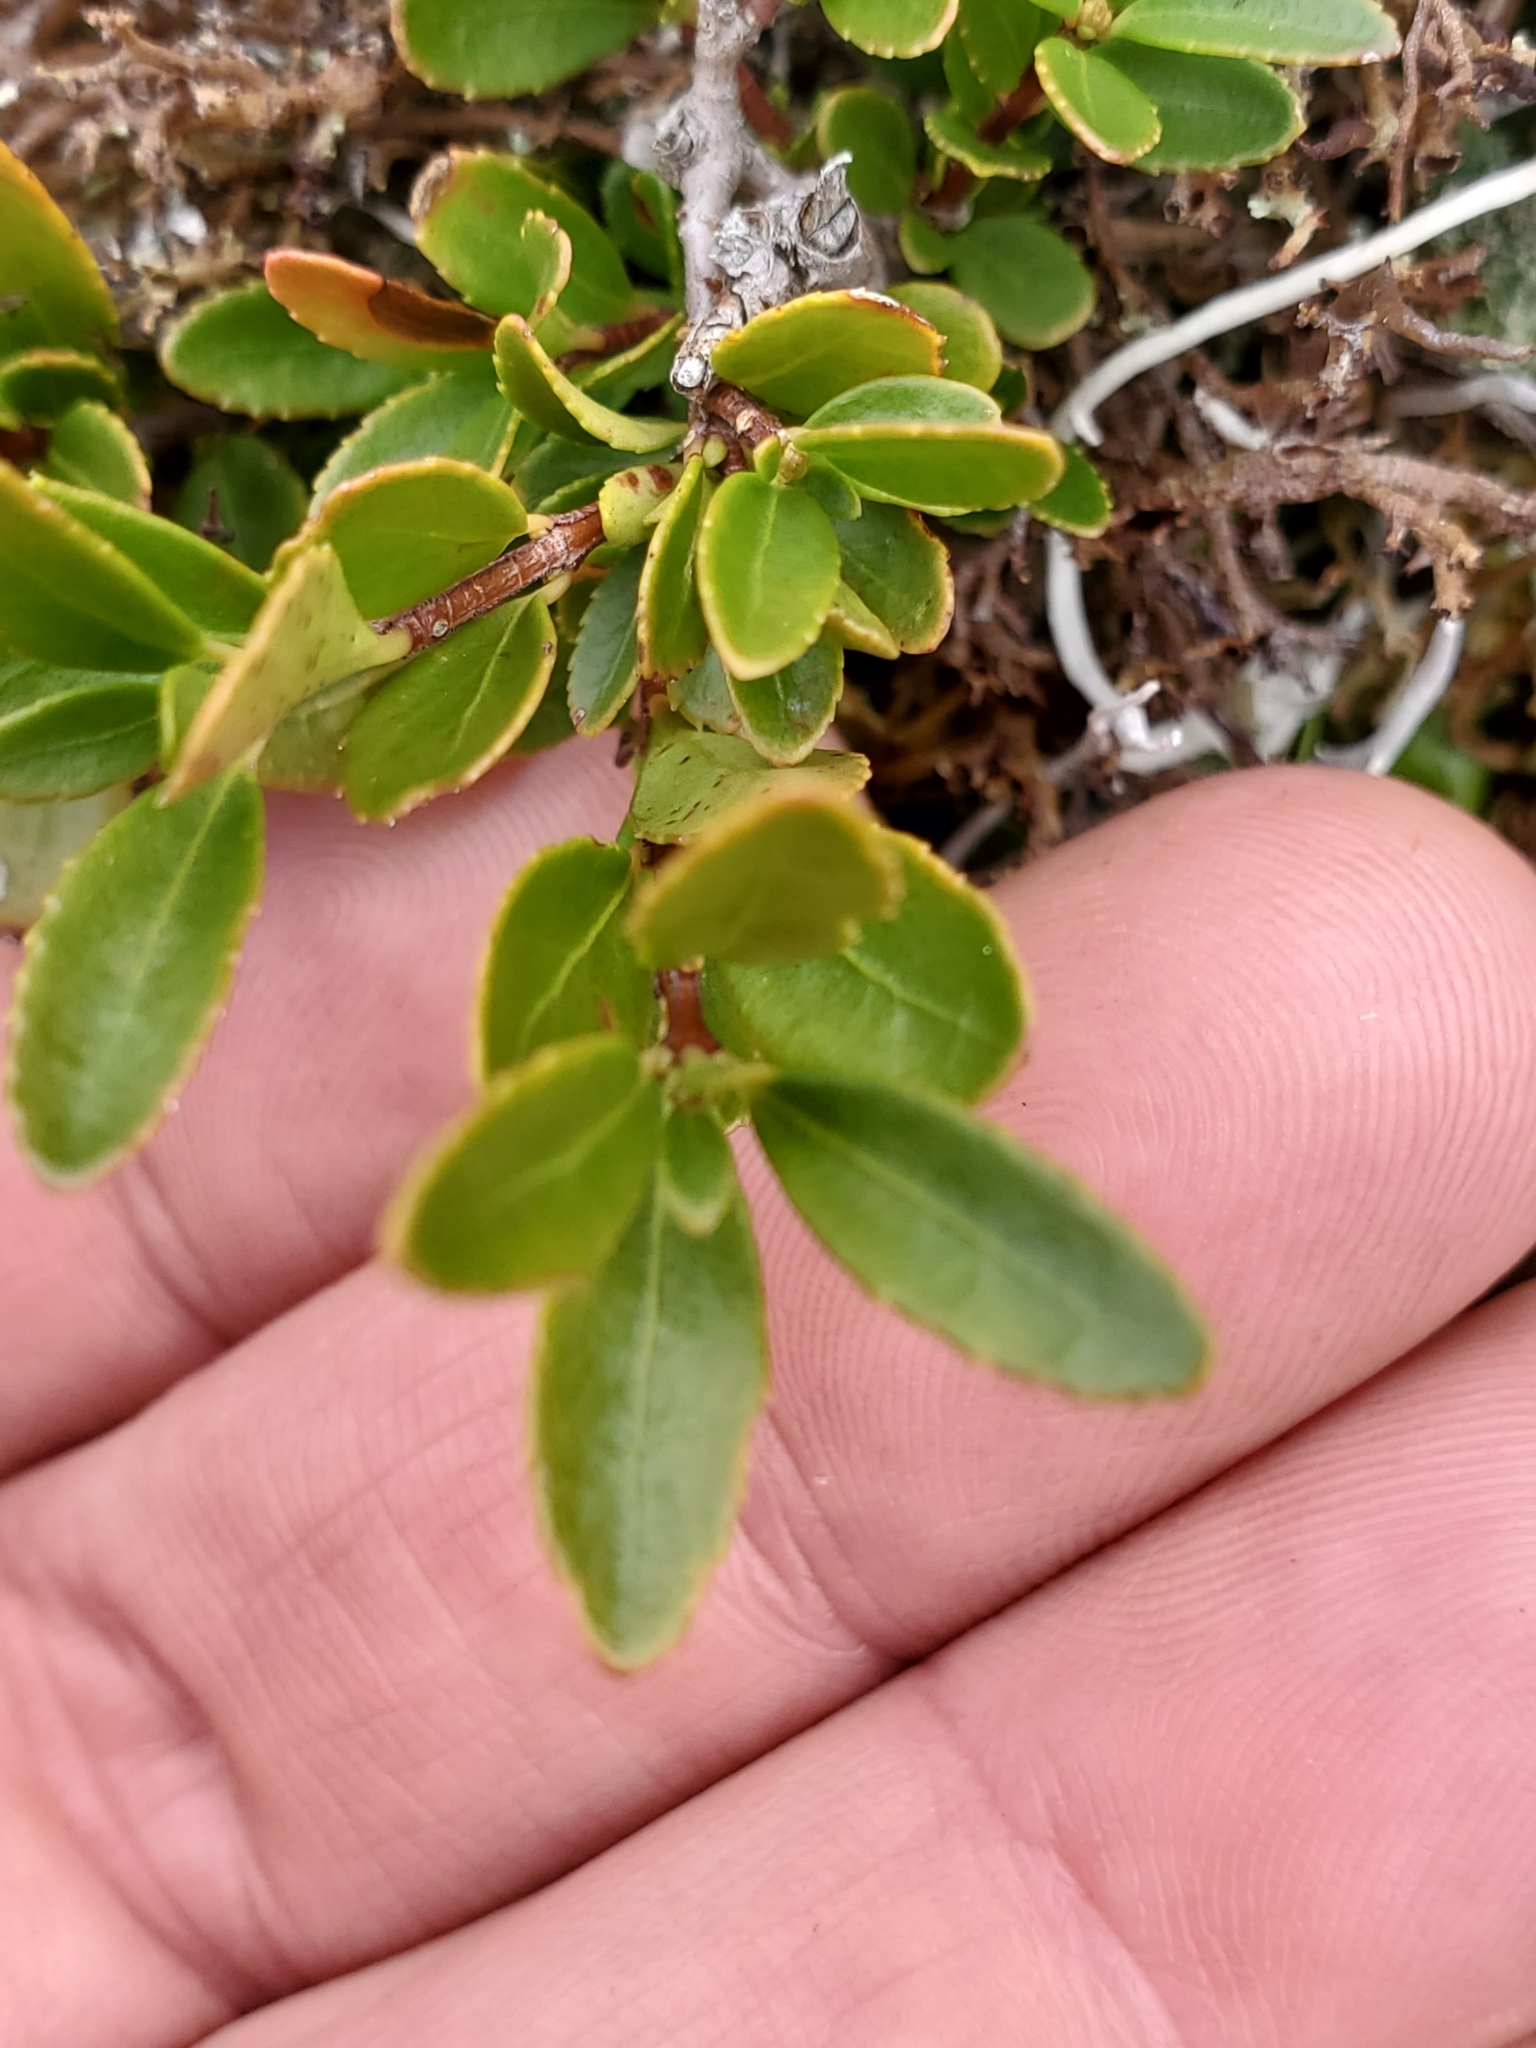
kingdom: Plantae
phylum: Tracheophyta
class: Magnoliopsida
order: Celastrales
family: Celastraceae
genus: Paxistima
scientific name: Paxistima myrsinites
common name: Mountain-lover
